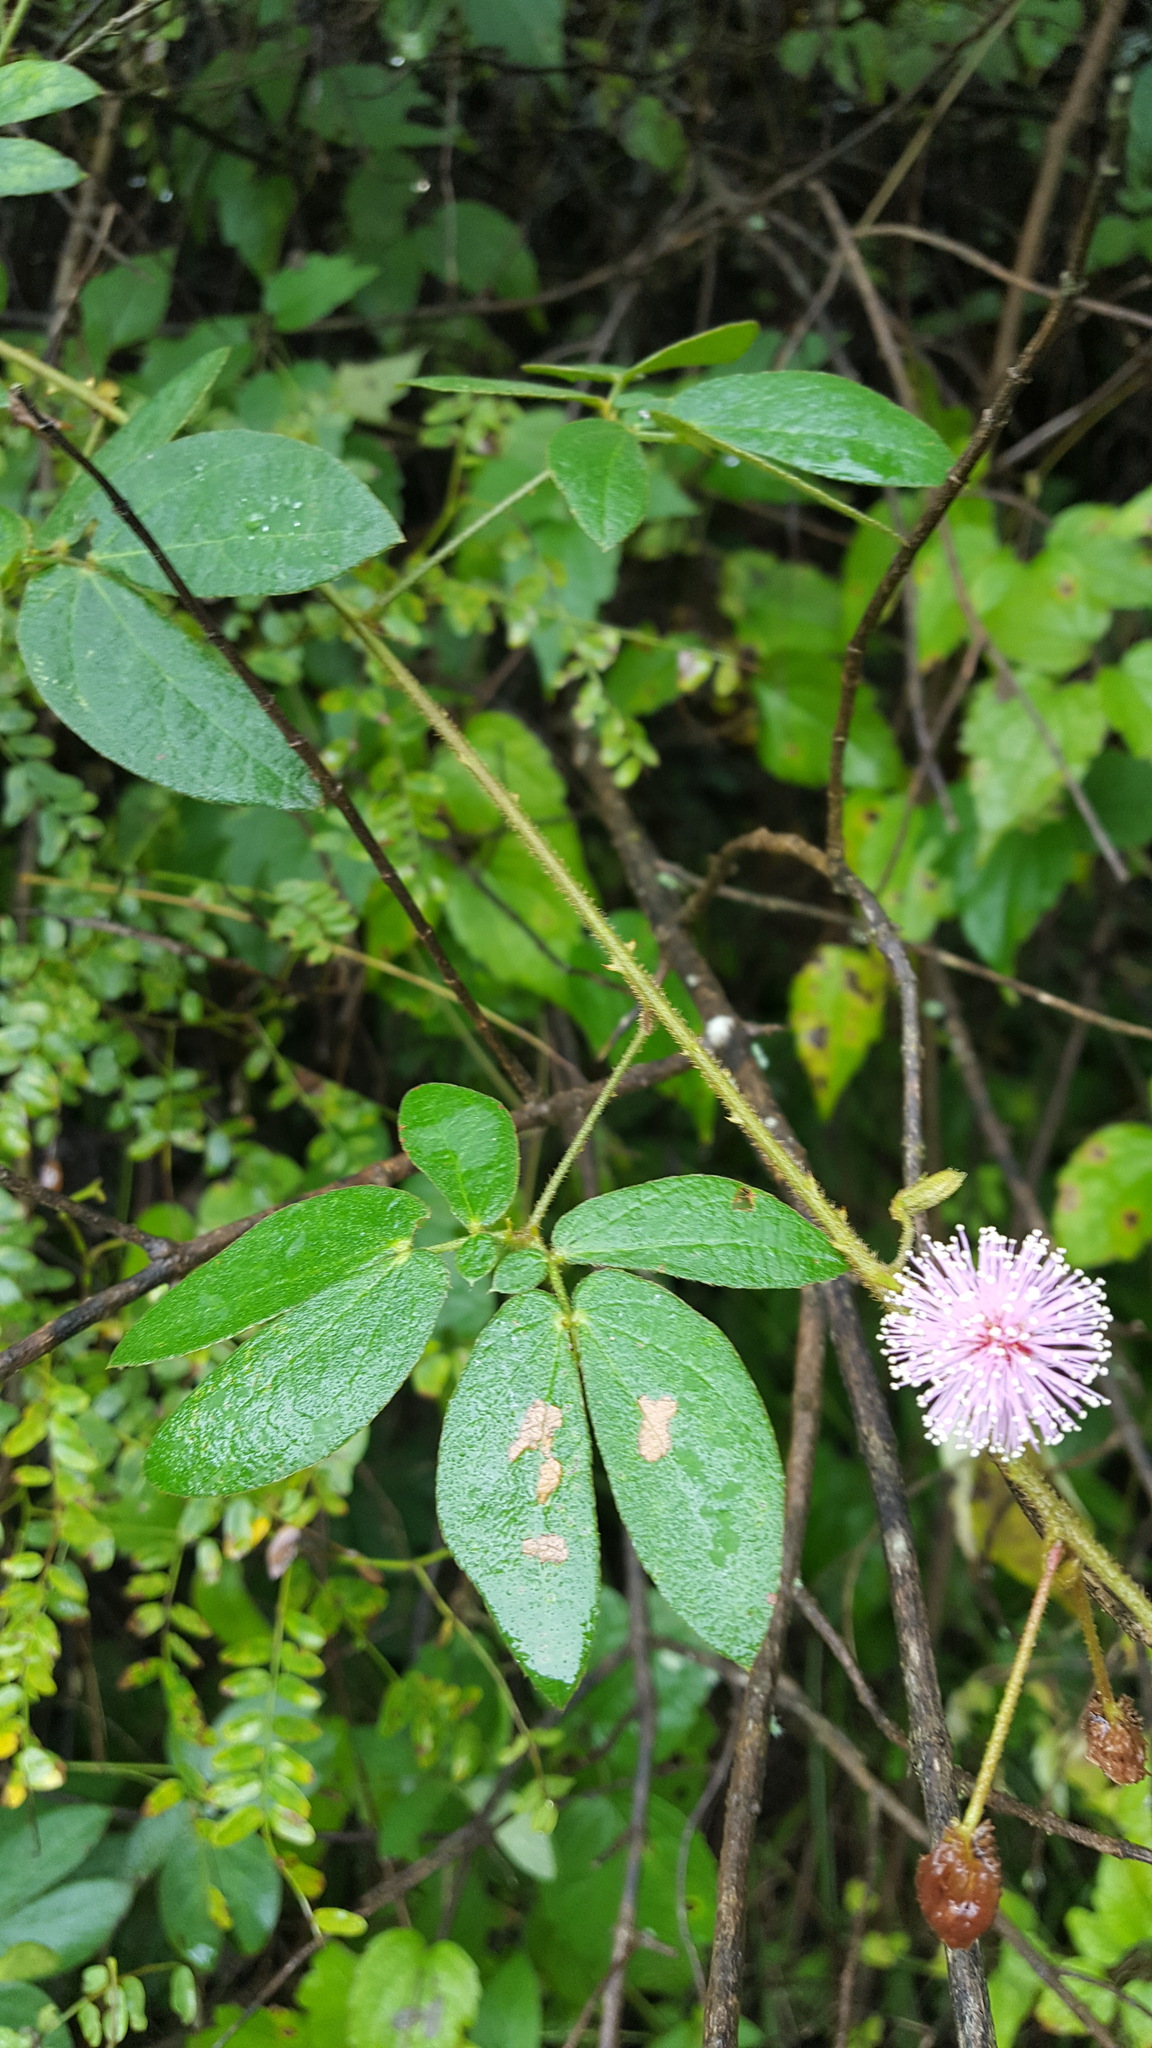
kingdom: Plantae
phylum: Tracheophyta
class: Magnoliopsida
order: Fabales
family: Fabaceae
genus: Mimosa
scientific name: Mimosa albida
